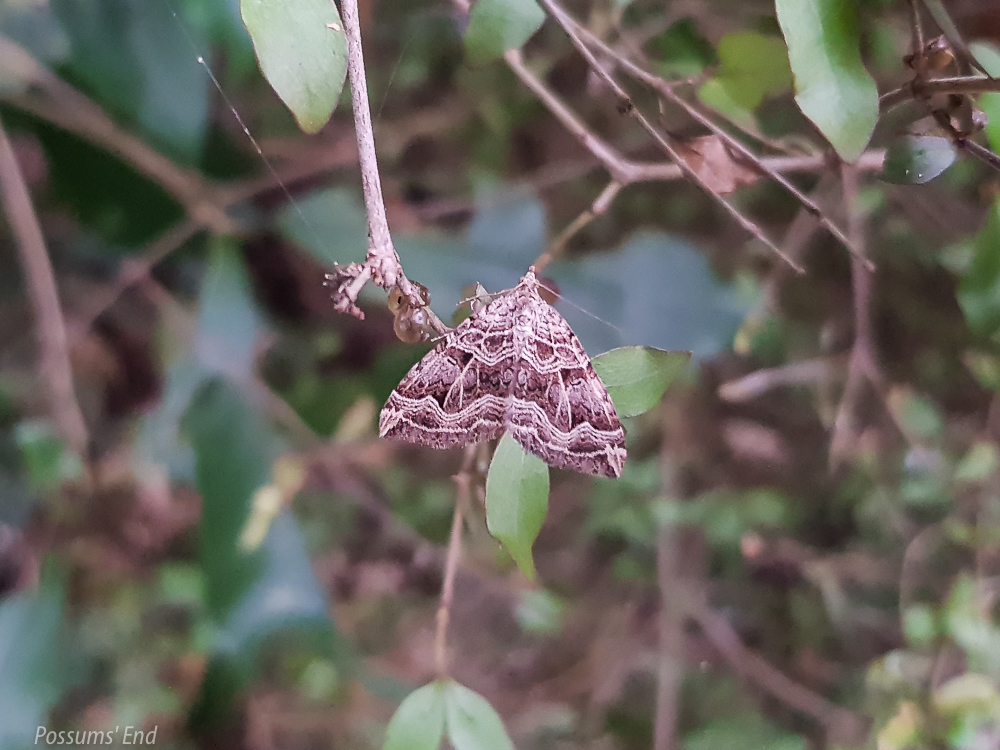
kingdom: Animalia
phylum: Arthropoda
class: Insecta
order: Lepidoptera
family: Geometridae
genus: Xanthorhoe
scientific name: Xanthorhoe semifissata
